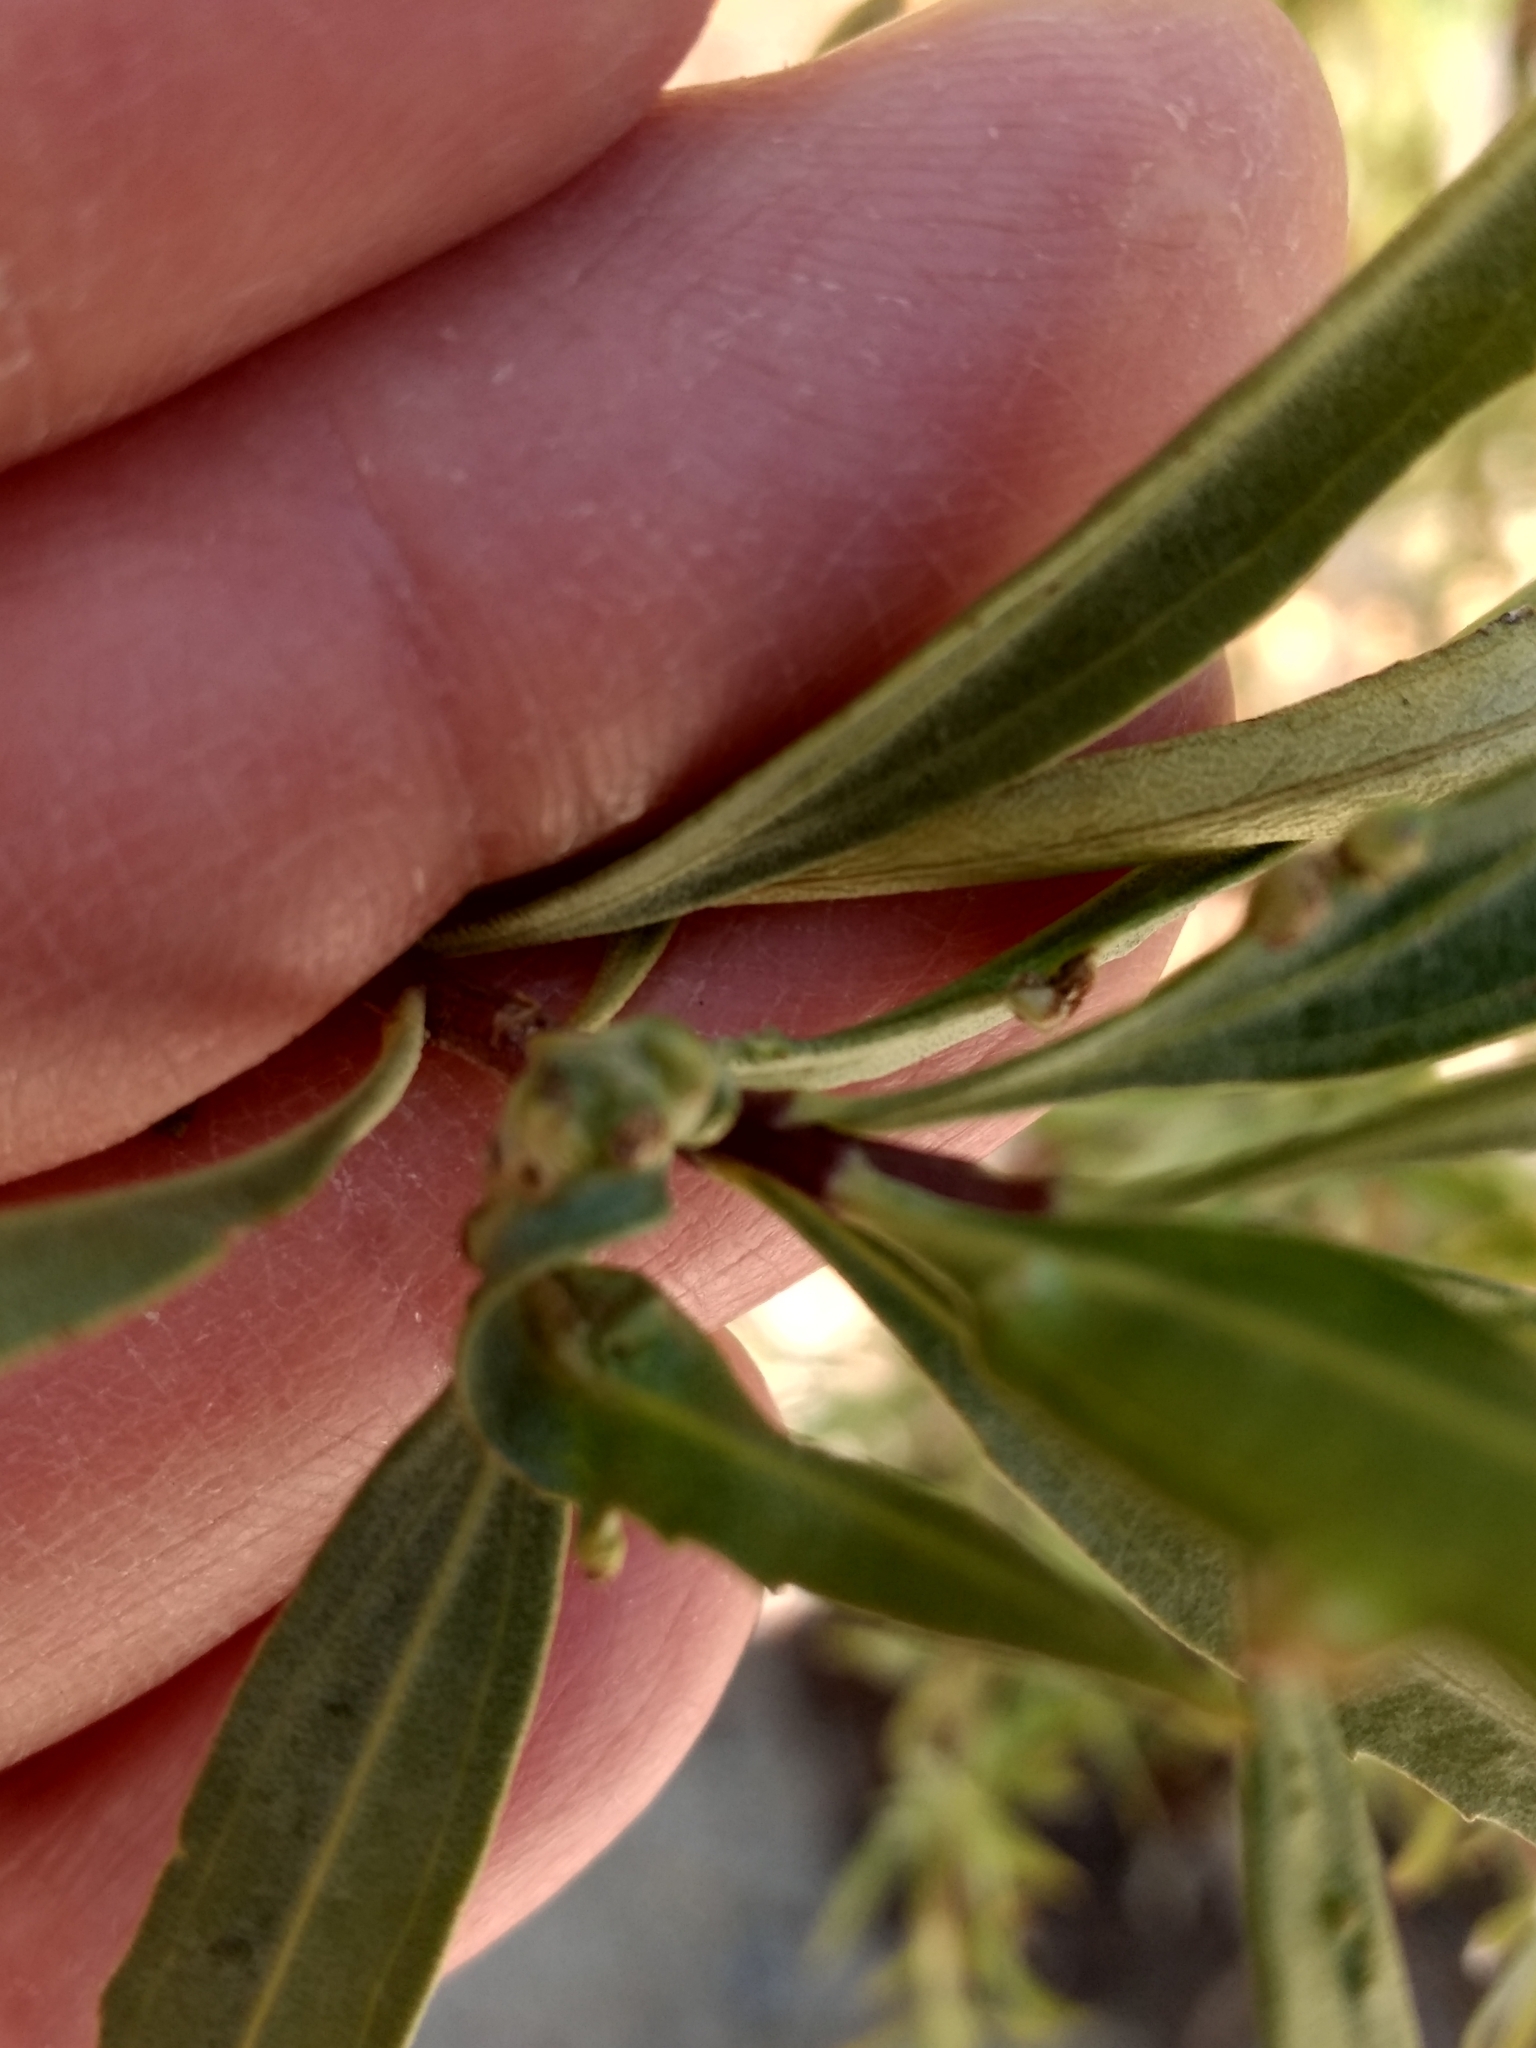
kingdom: Plantae
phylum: Tracheophyta
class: Magnoliopsida
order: Asterales
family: Asteraceae
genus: Baccharis
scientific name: Baccharis salicifolia
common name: Sticky baccharis
